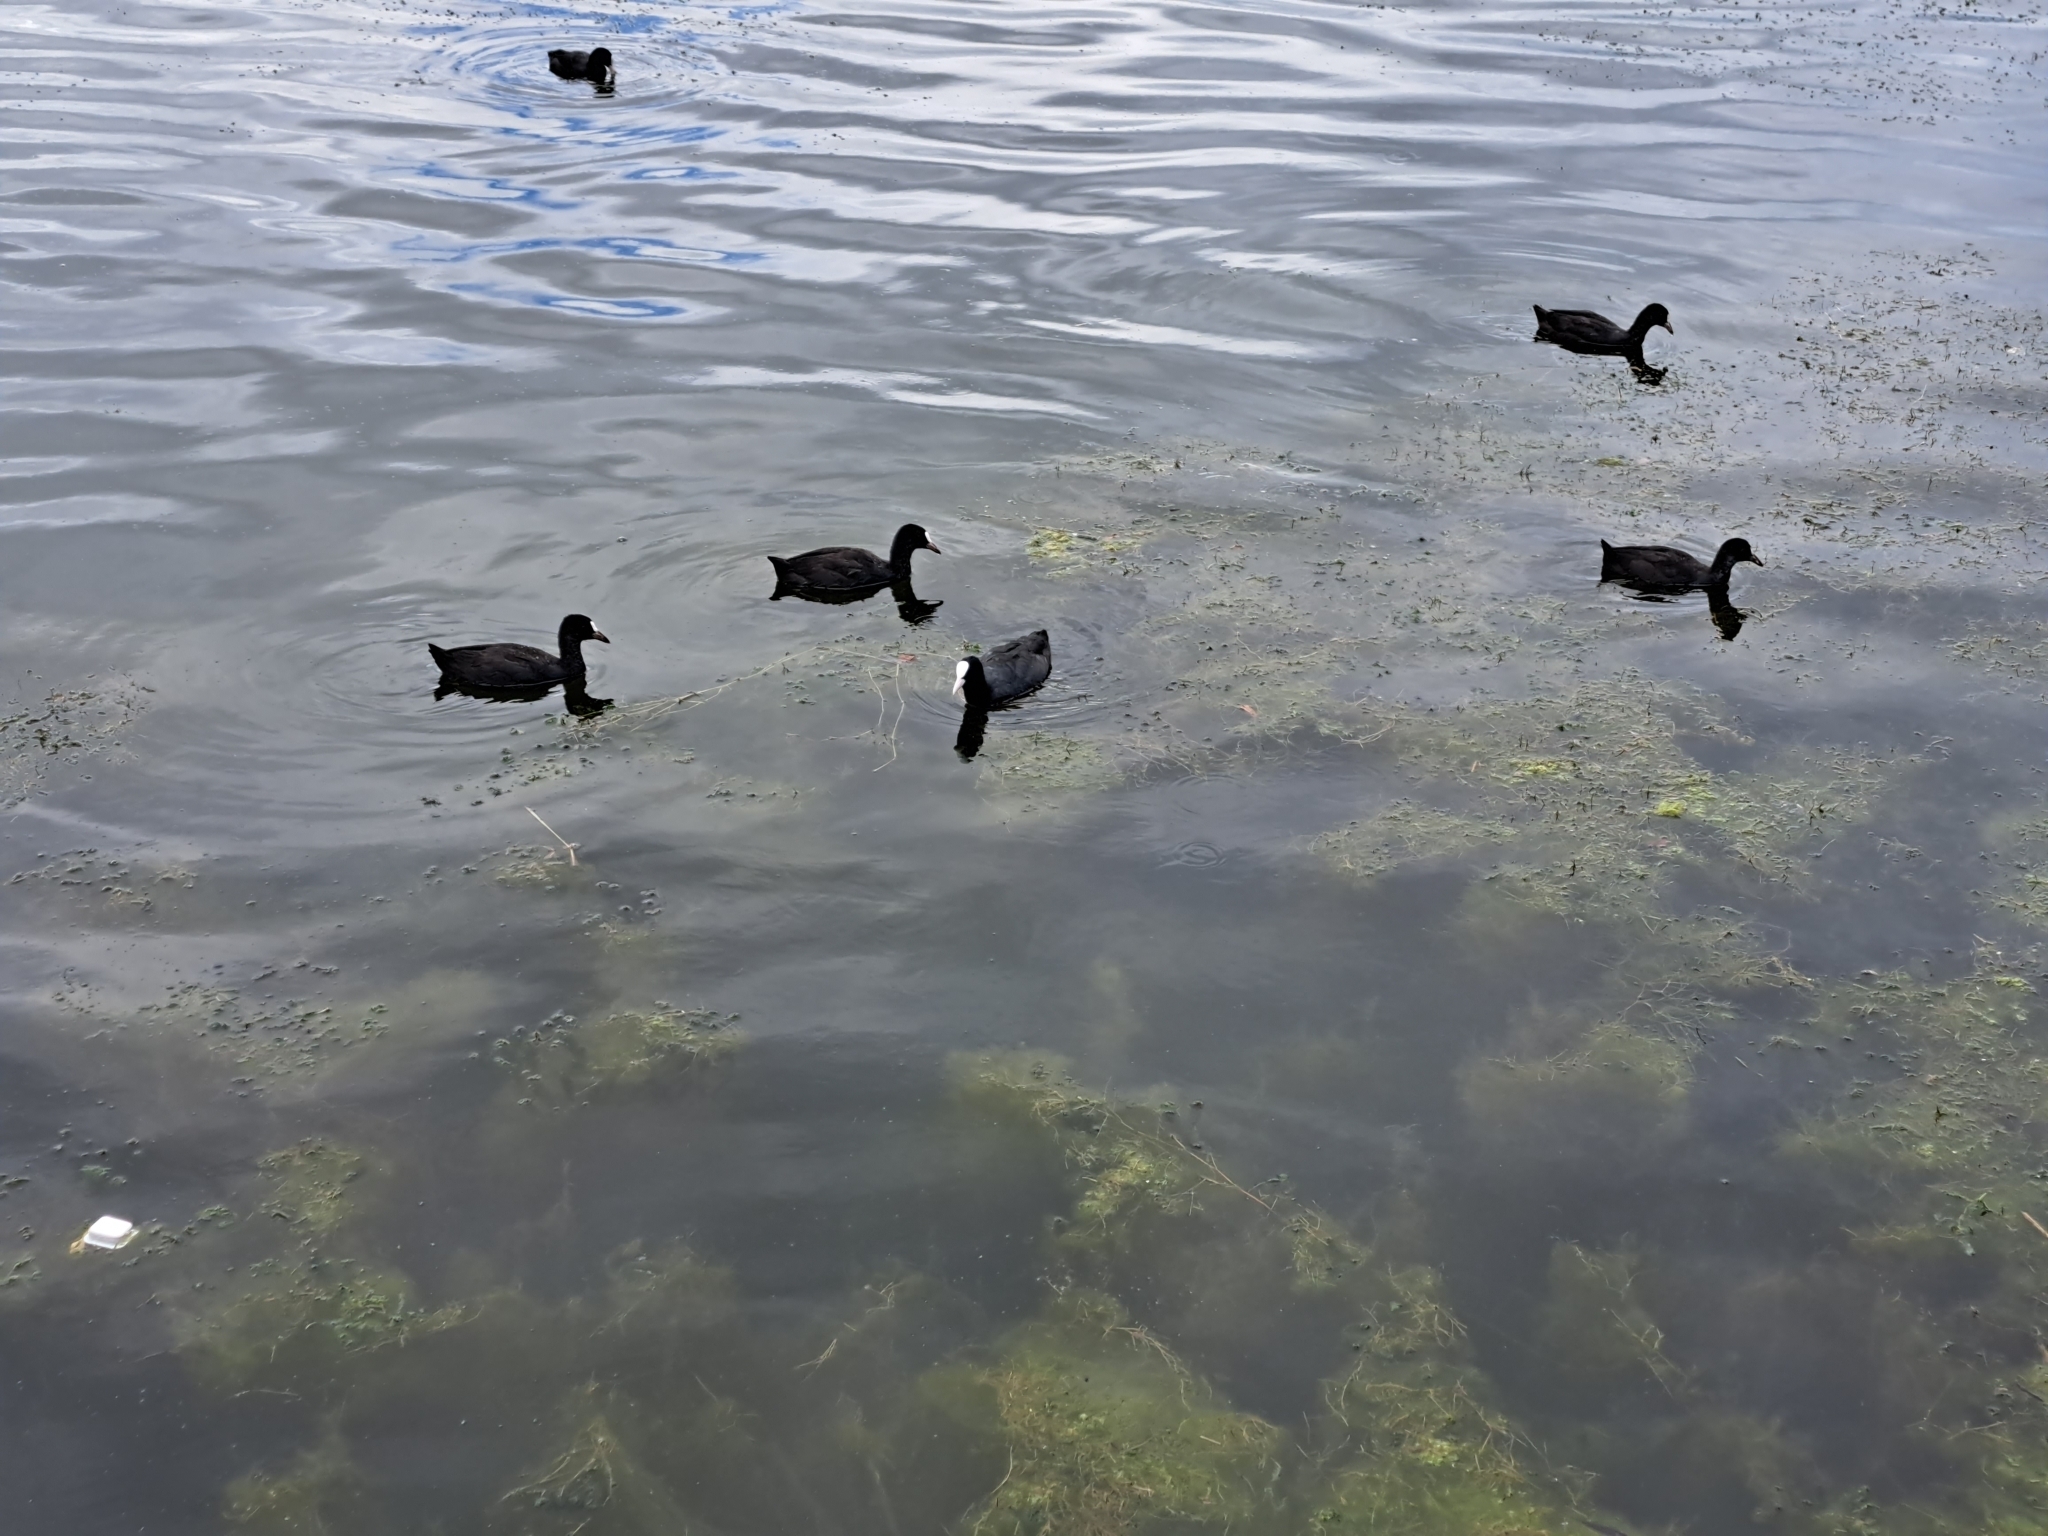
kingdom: Animalia
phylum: Chordata
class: Aves
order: Gruiformes
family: Rallidae
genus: Fulica
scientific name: Fulica atra
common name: Eurasian coot
